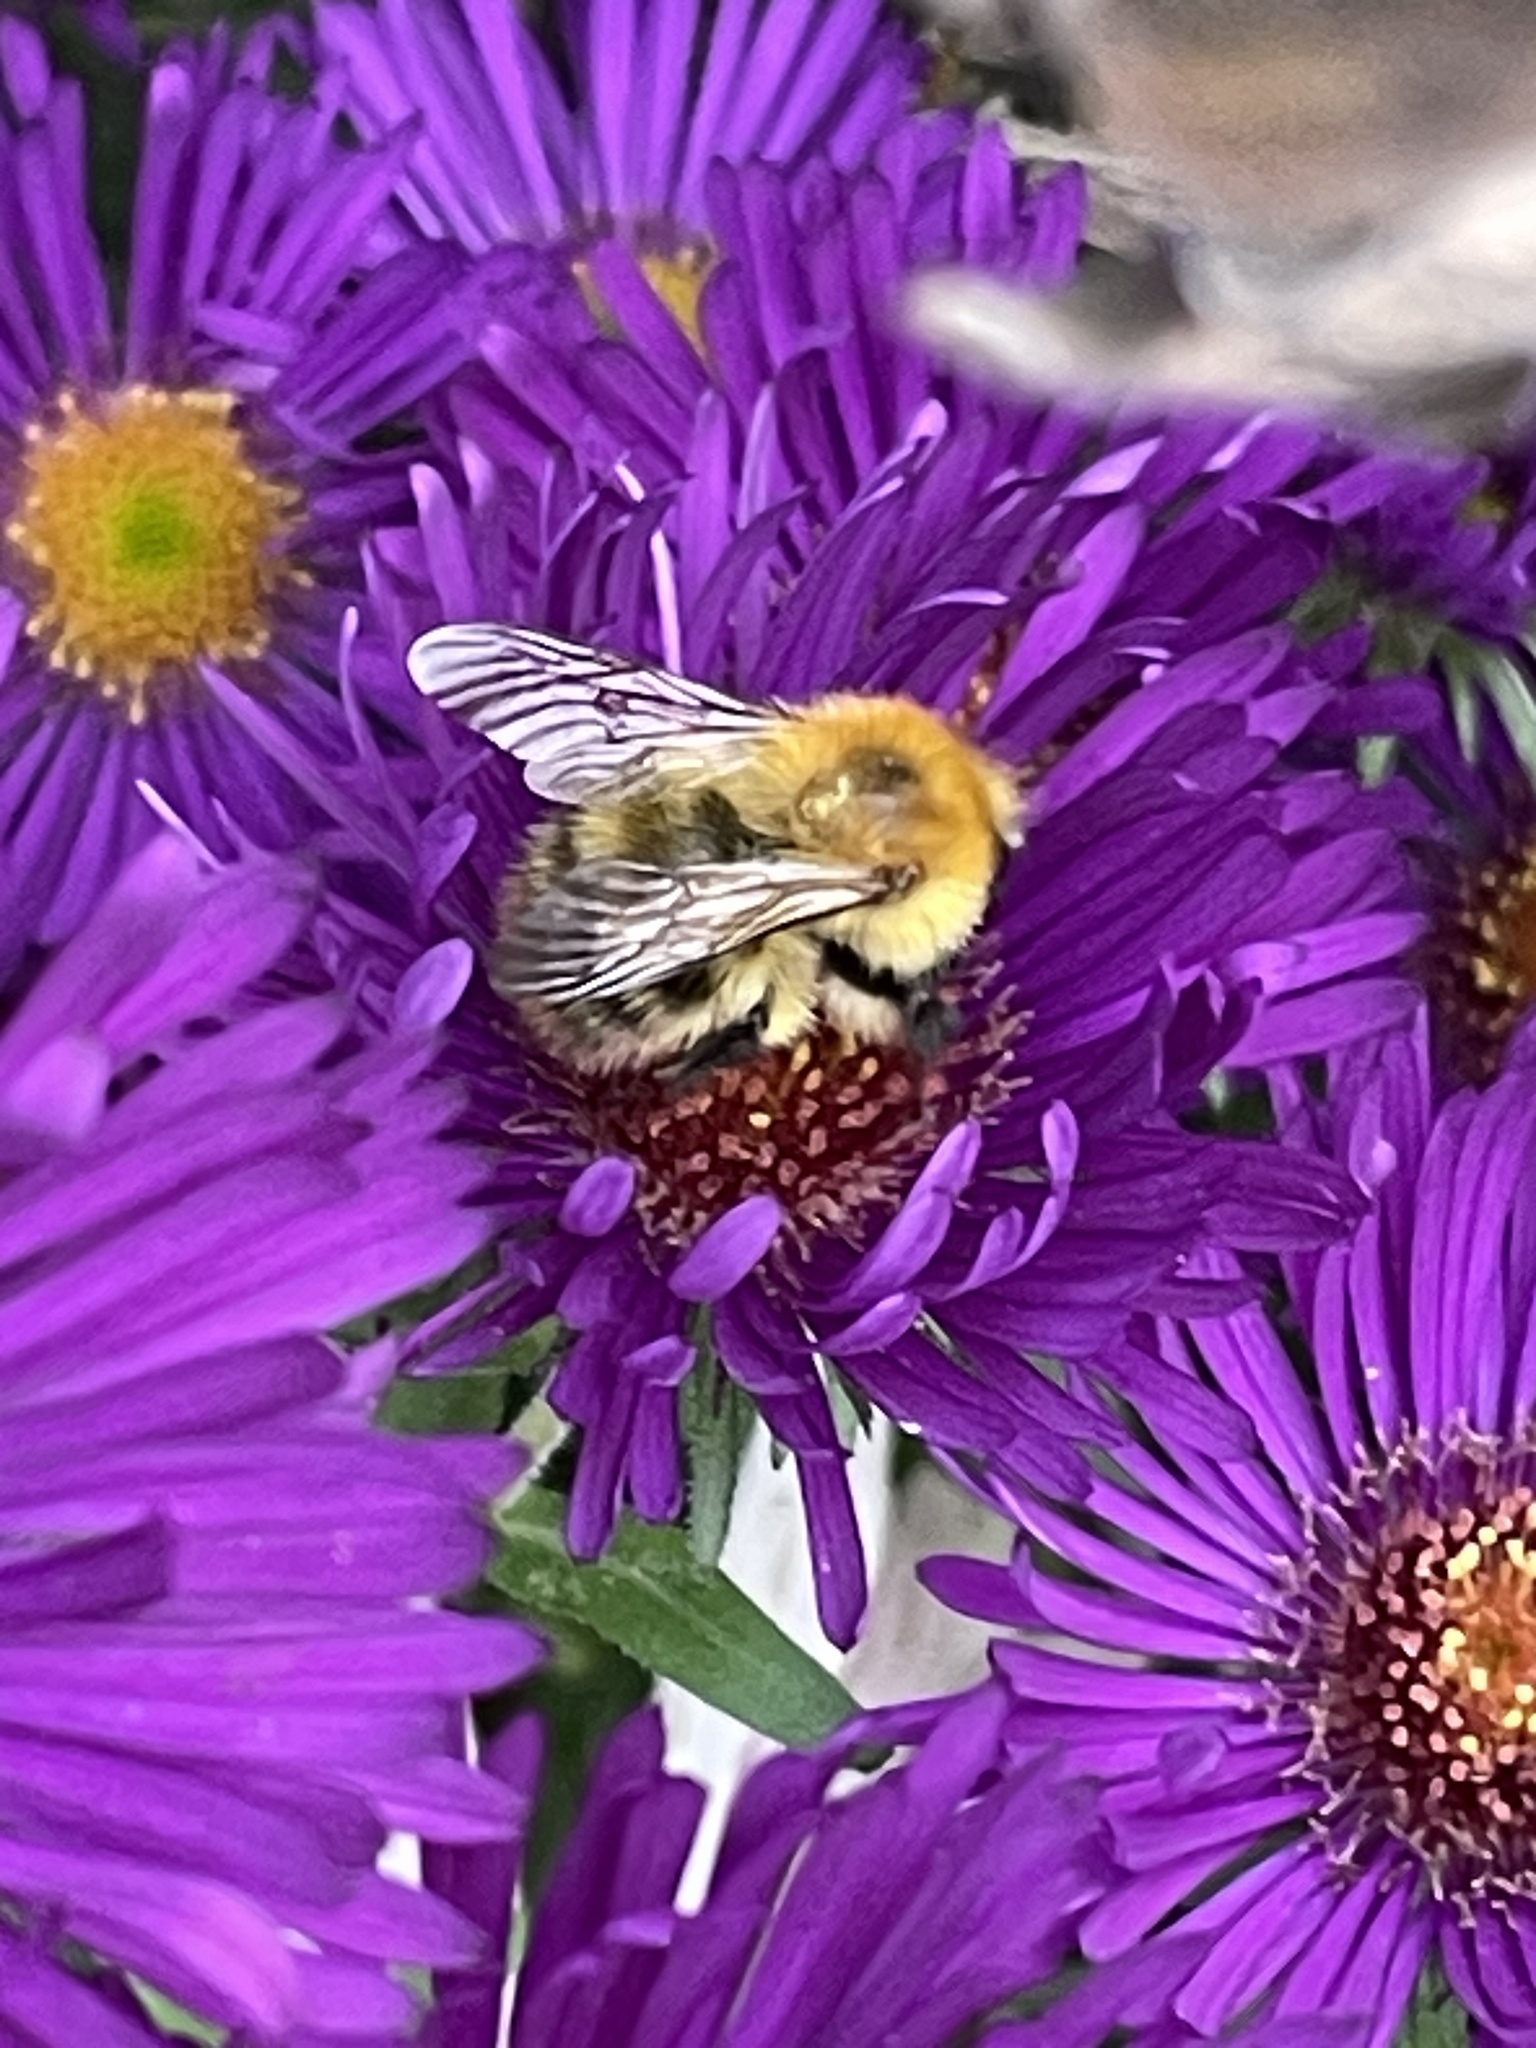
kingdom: Animalia
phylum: Arthropoda
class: Insecta
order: Hymenoptera
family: Apidae
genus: Bombus
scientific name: Bombus pascuorum
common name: Common carder bee
